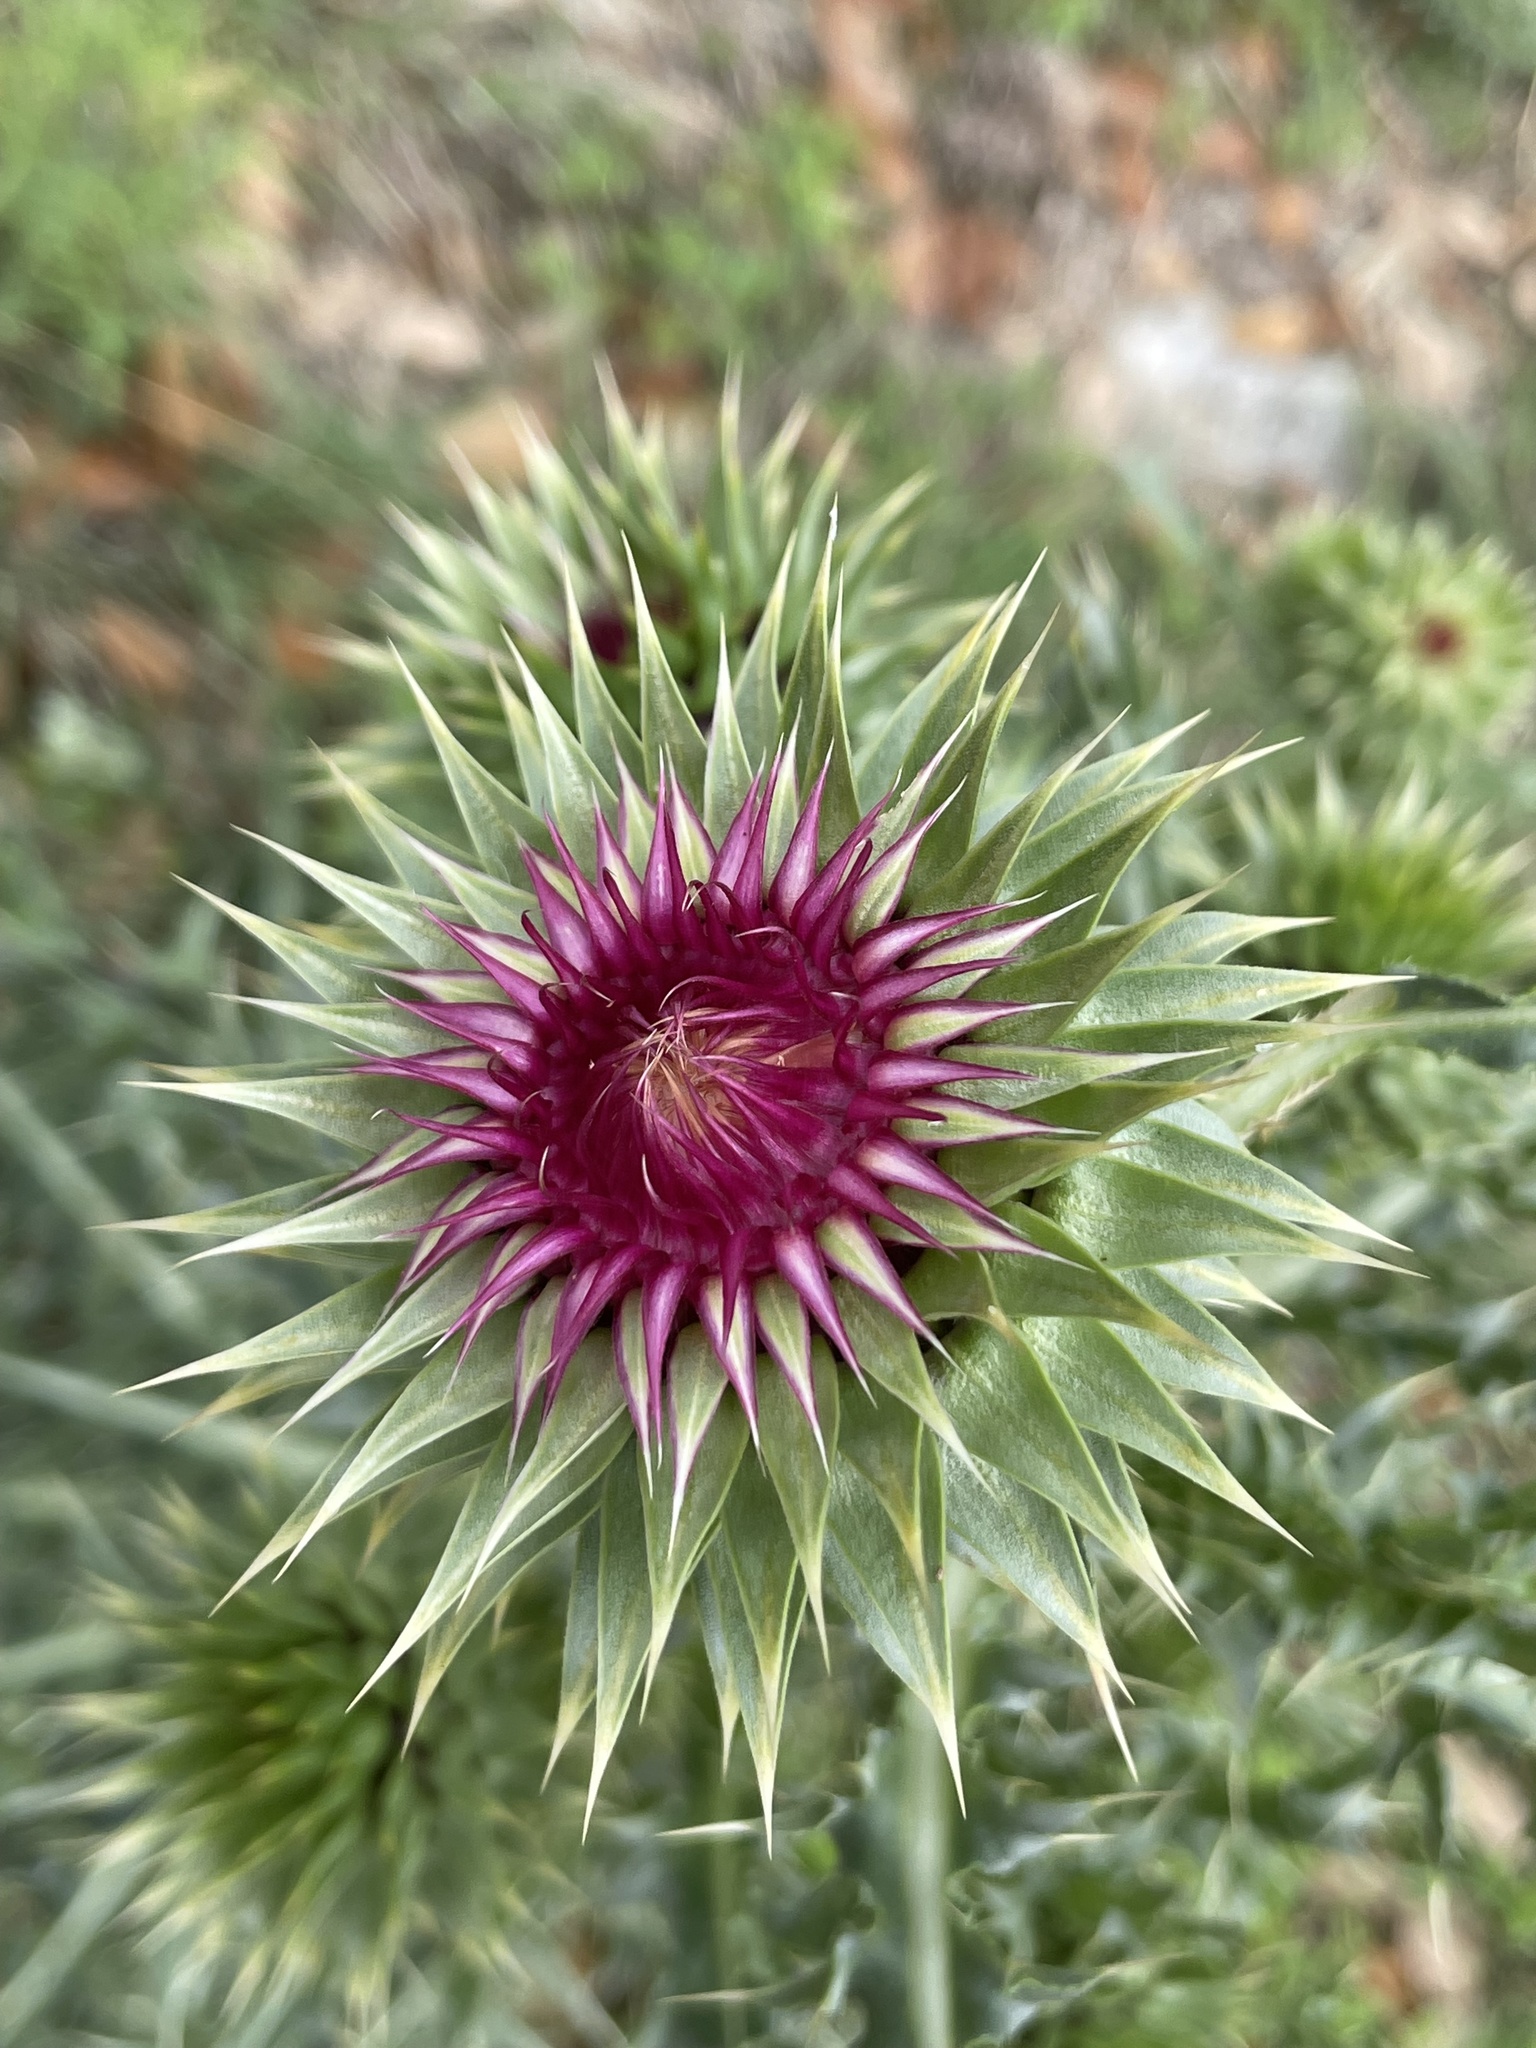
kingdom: Plantae
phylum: Tracheophyta
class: Magnoliopsida
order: Asterales
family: Asteraceae
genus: Carduus
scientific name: Carduus nutans
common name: Musk thistle
